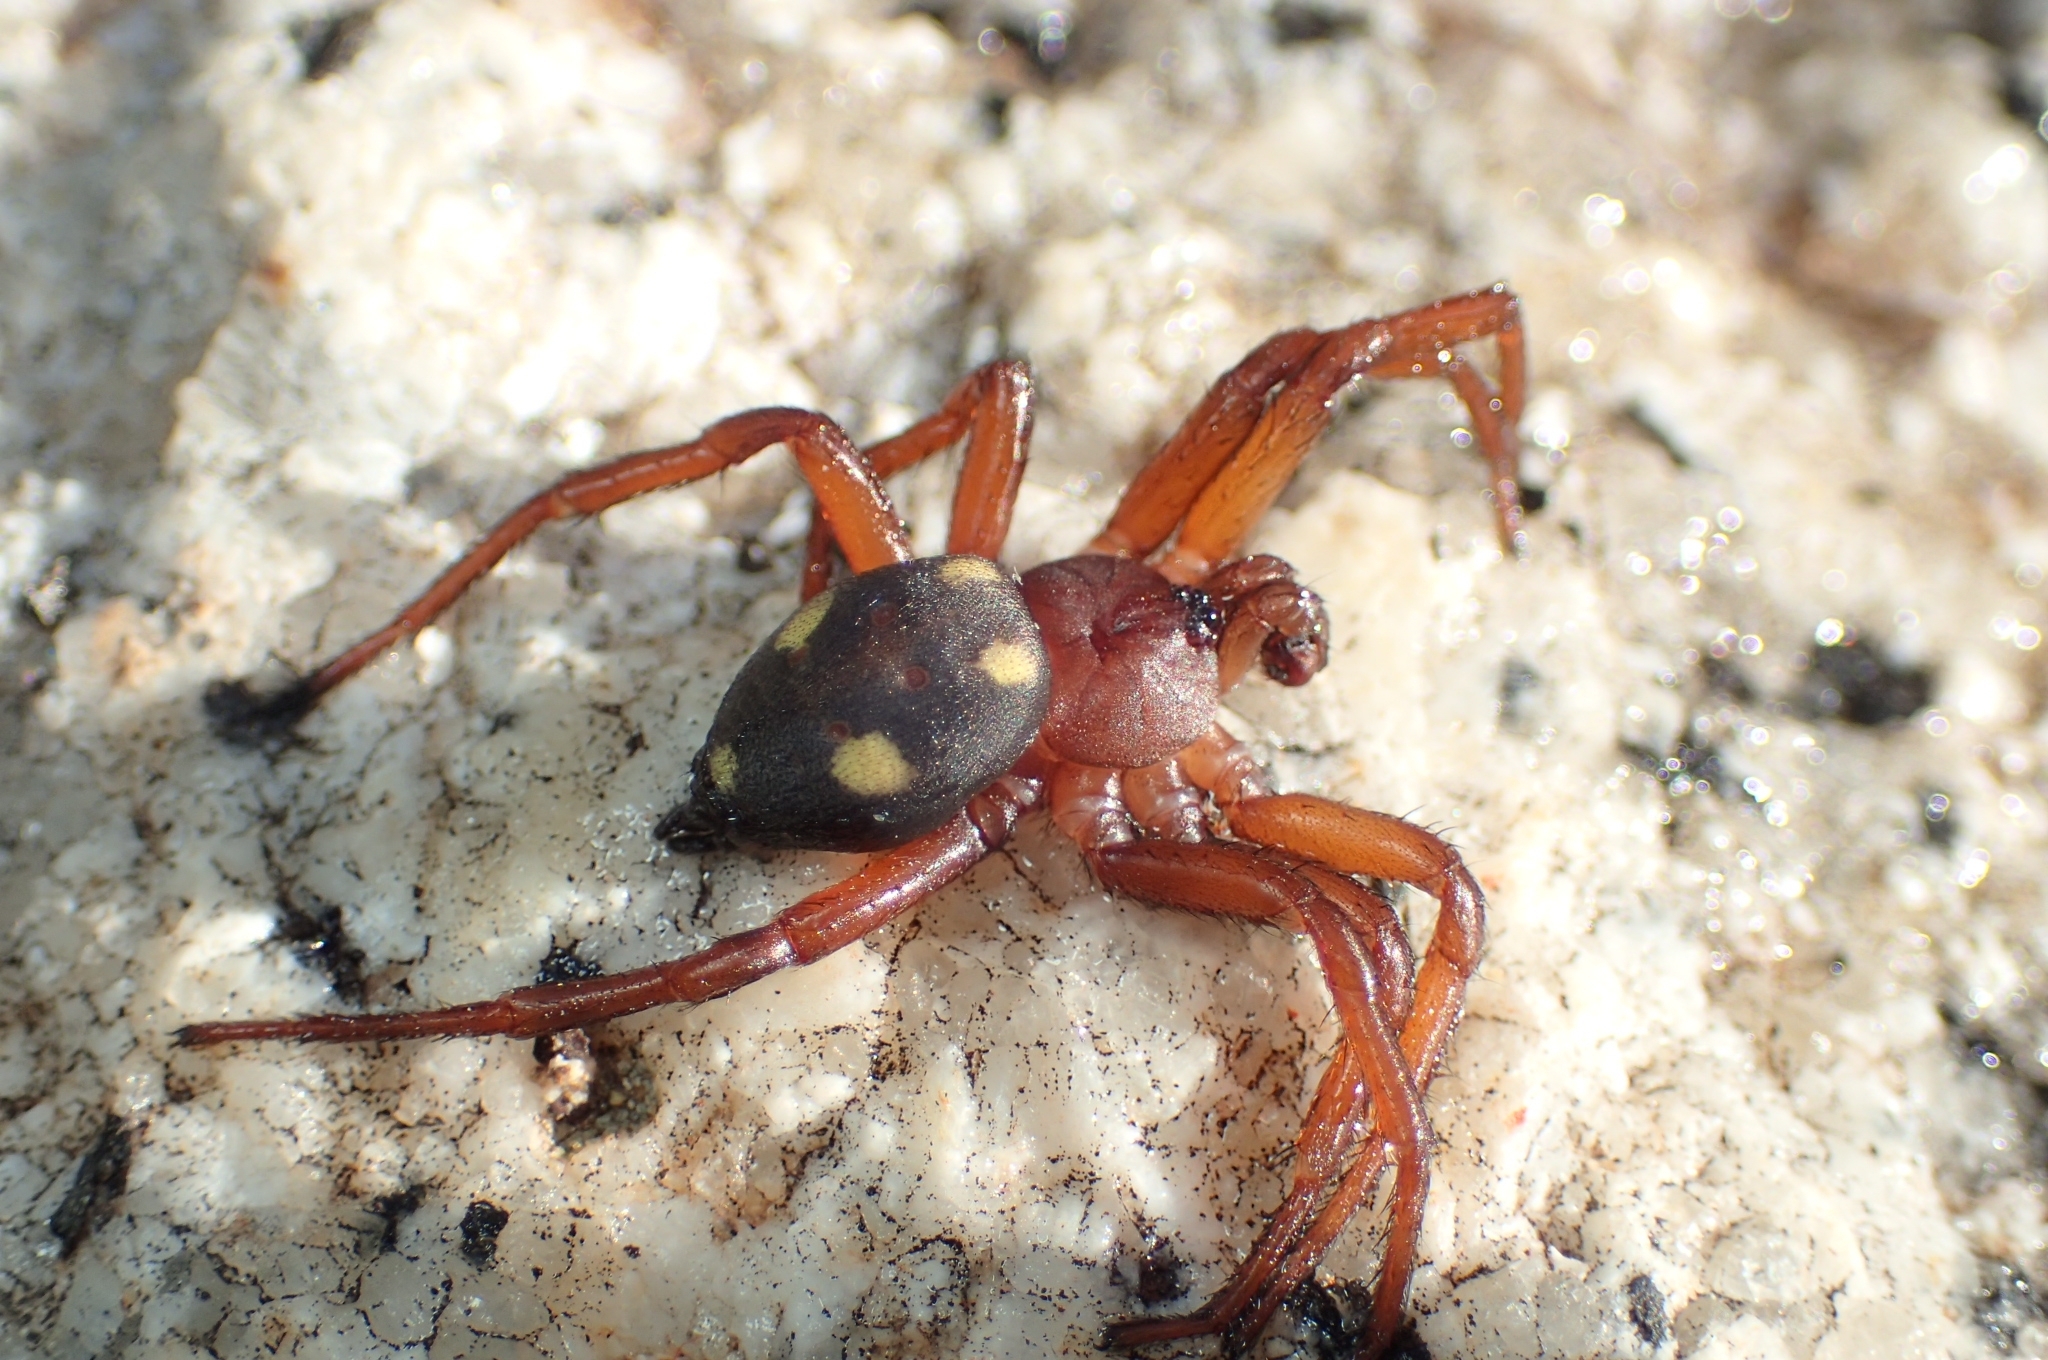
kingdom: Animalia
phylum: Arthropoda
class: Arachnida
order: Araneae
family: Oecobiidae
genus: Uroctea
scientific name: Uroctea durandi
